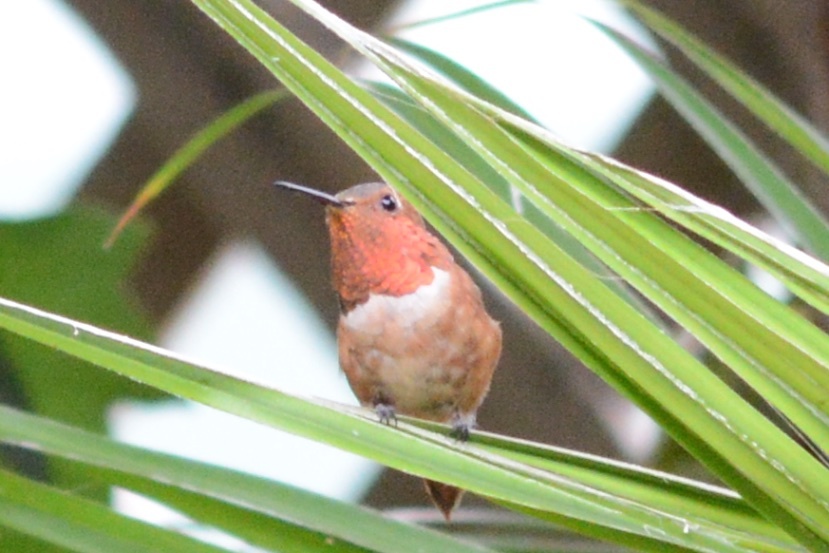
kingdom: Animalia
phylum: Chordata
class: Aves
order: Apodiformes
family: Trochilidae
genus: Selasphorus
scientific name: Selasphorus sasin
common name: Allen's hummingbird
